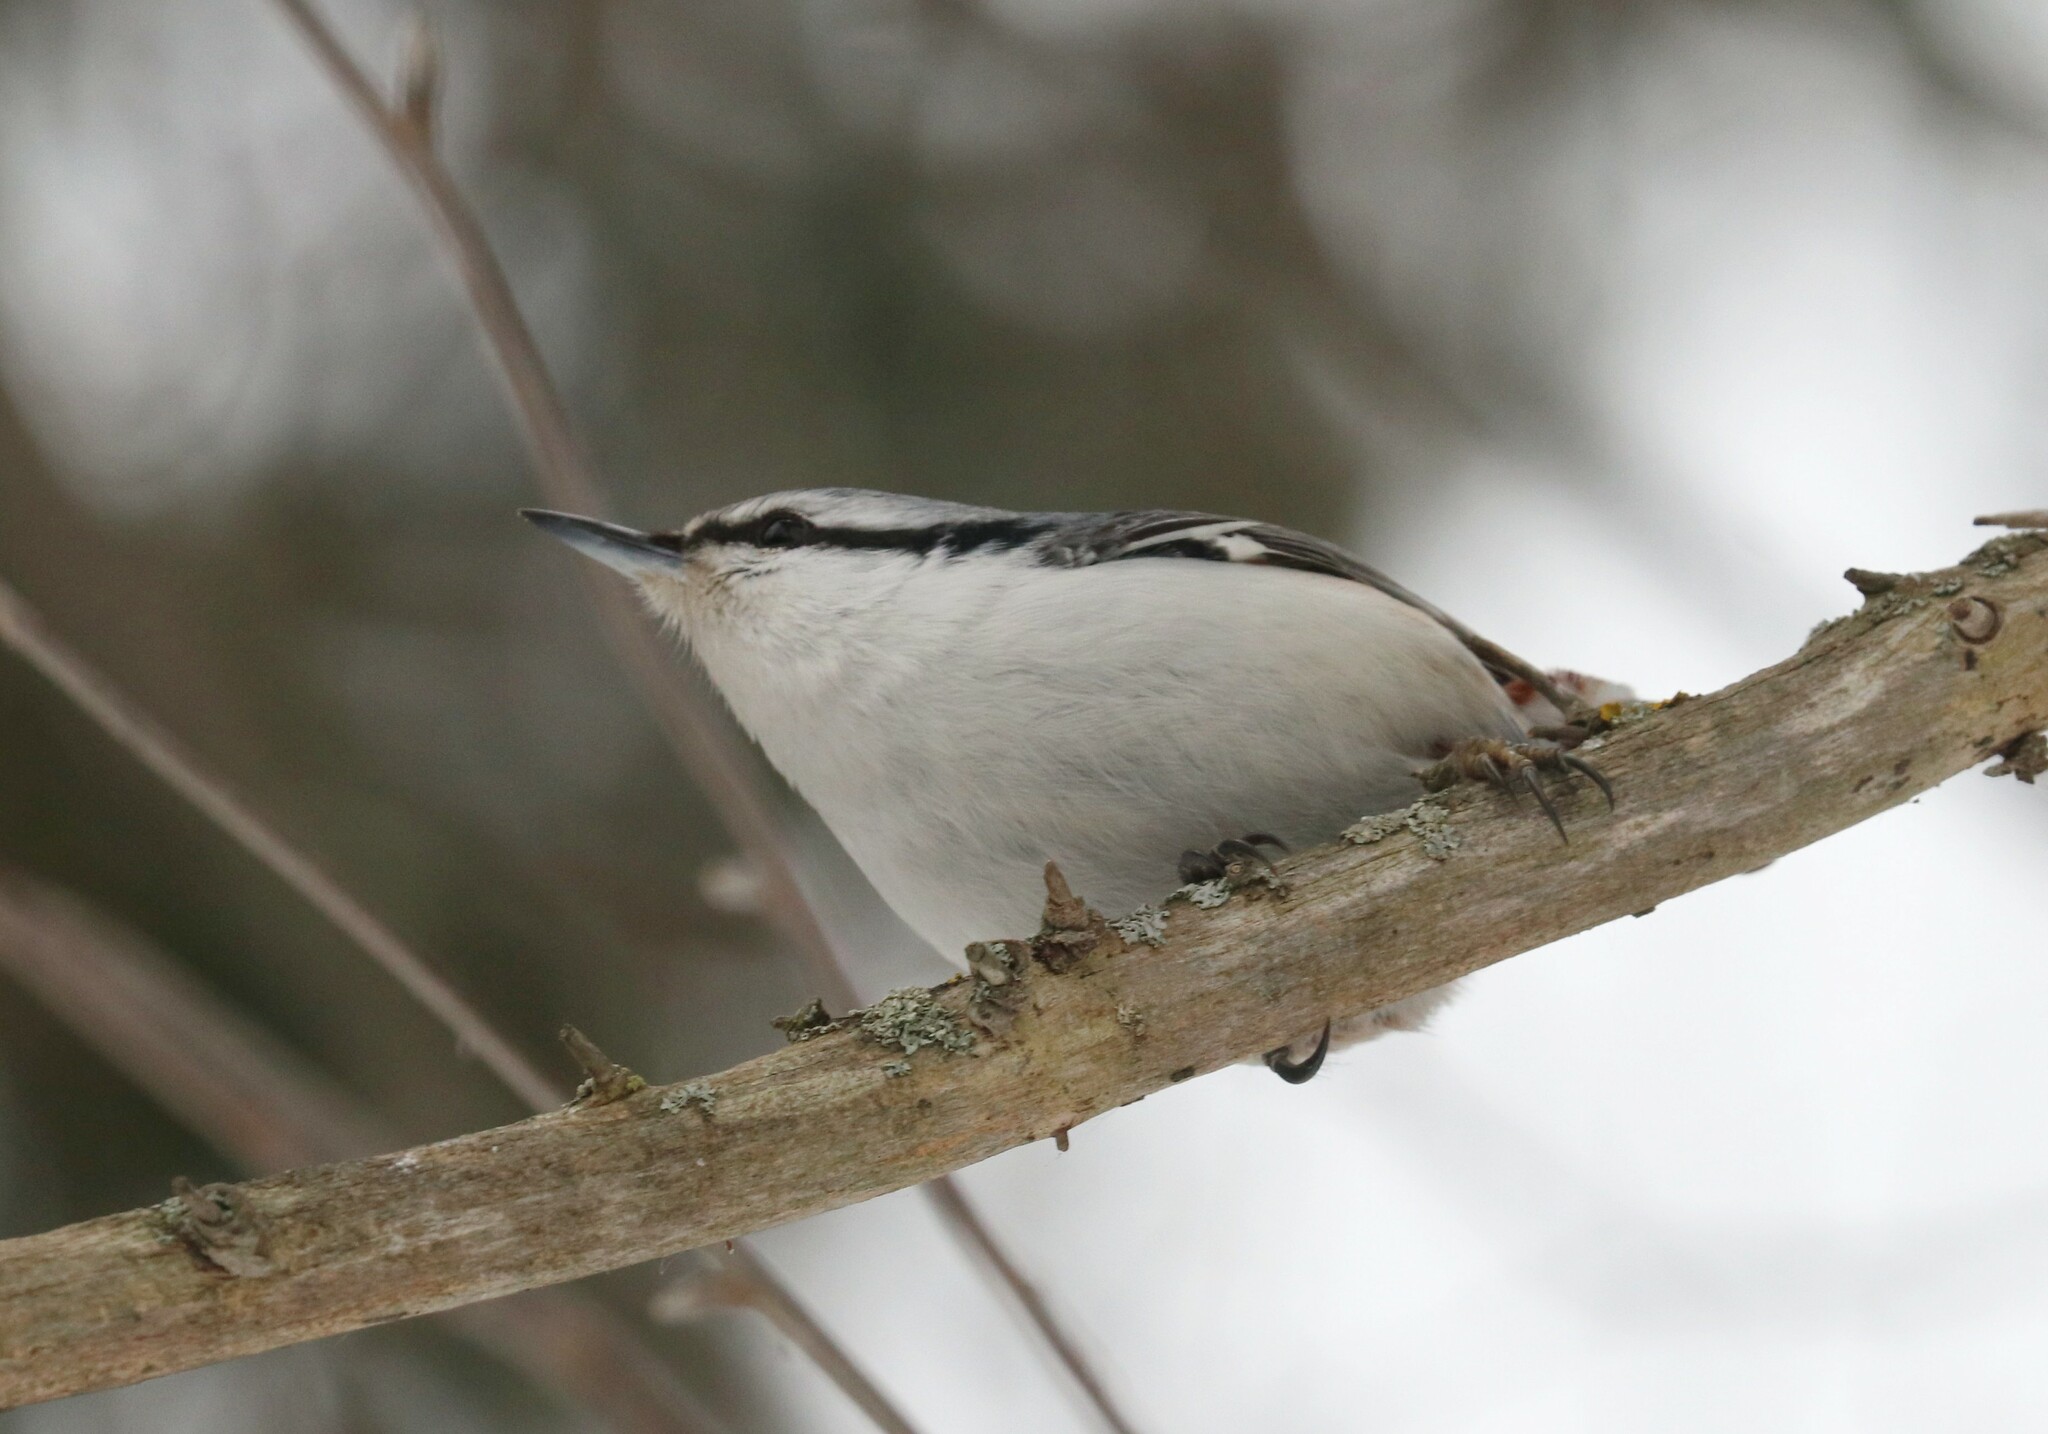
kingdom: Animalia
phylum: Chordata
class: Aves
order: Passeriformes
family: Sittidae
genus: Sitta
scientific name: Sitta europaea
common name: Eurasian nuthatch
